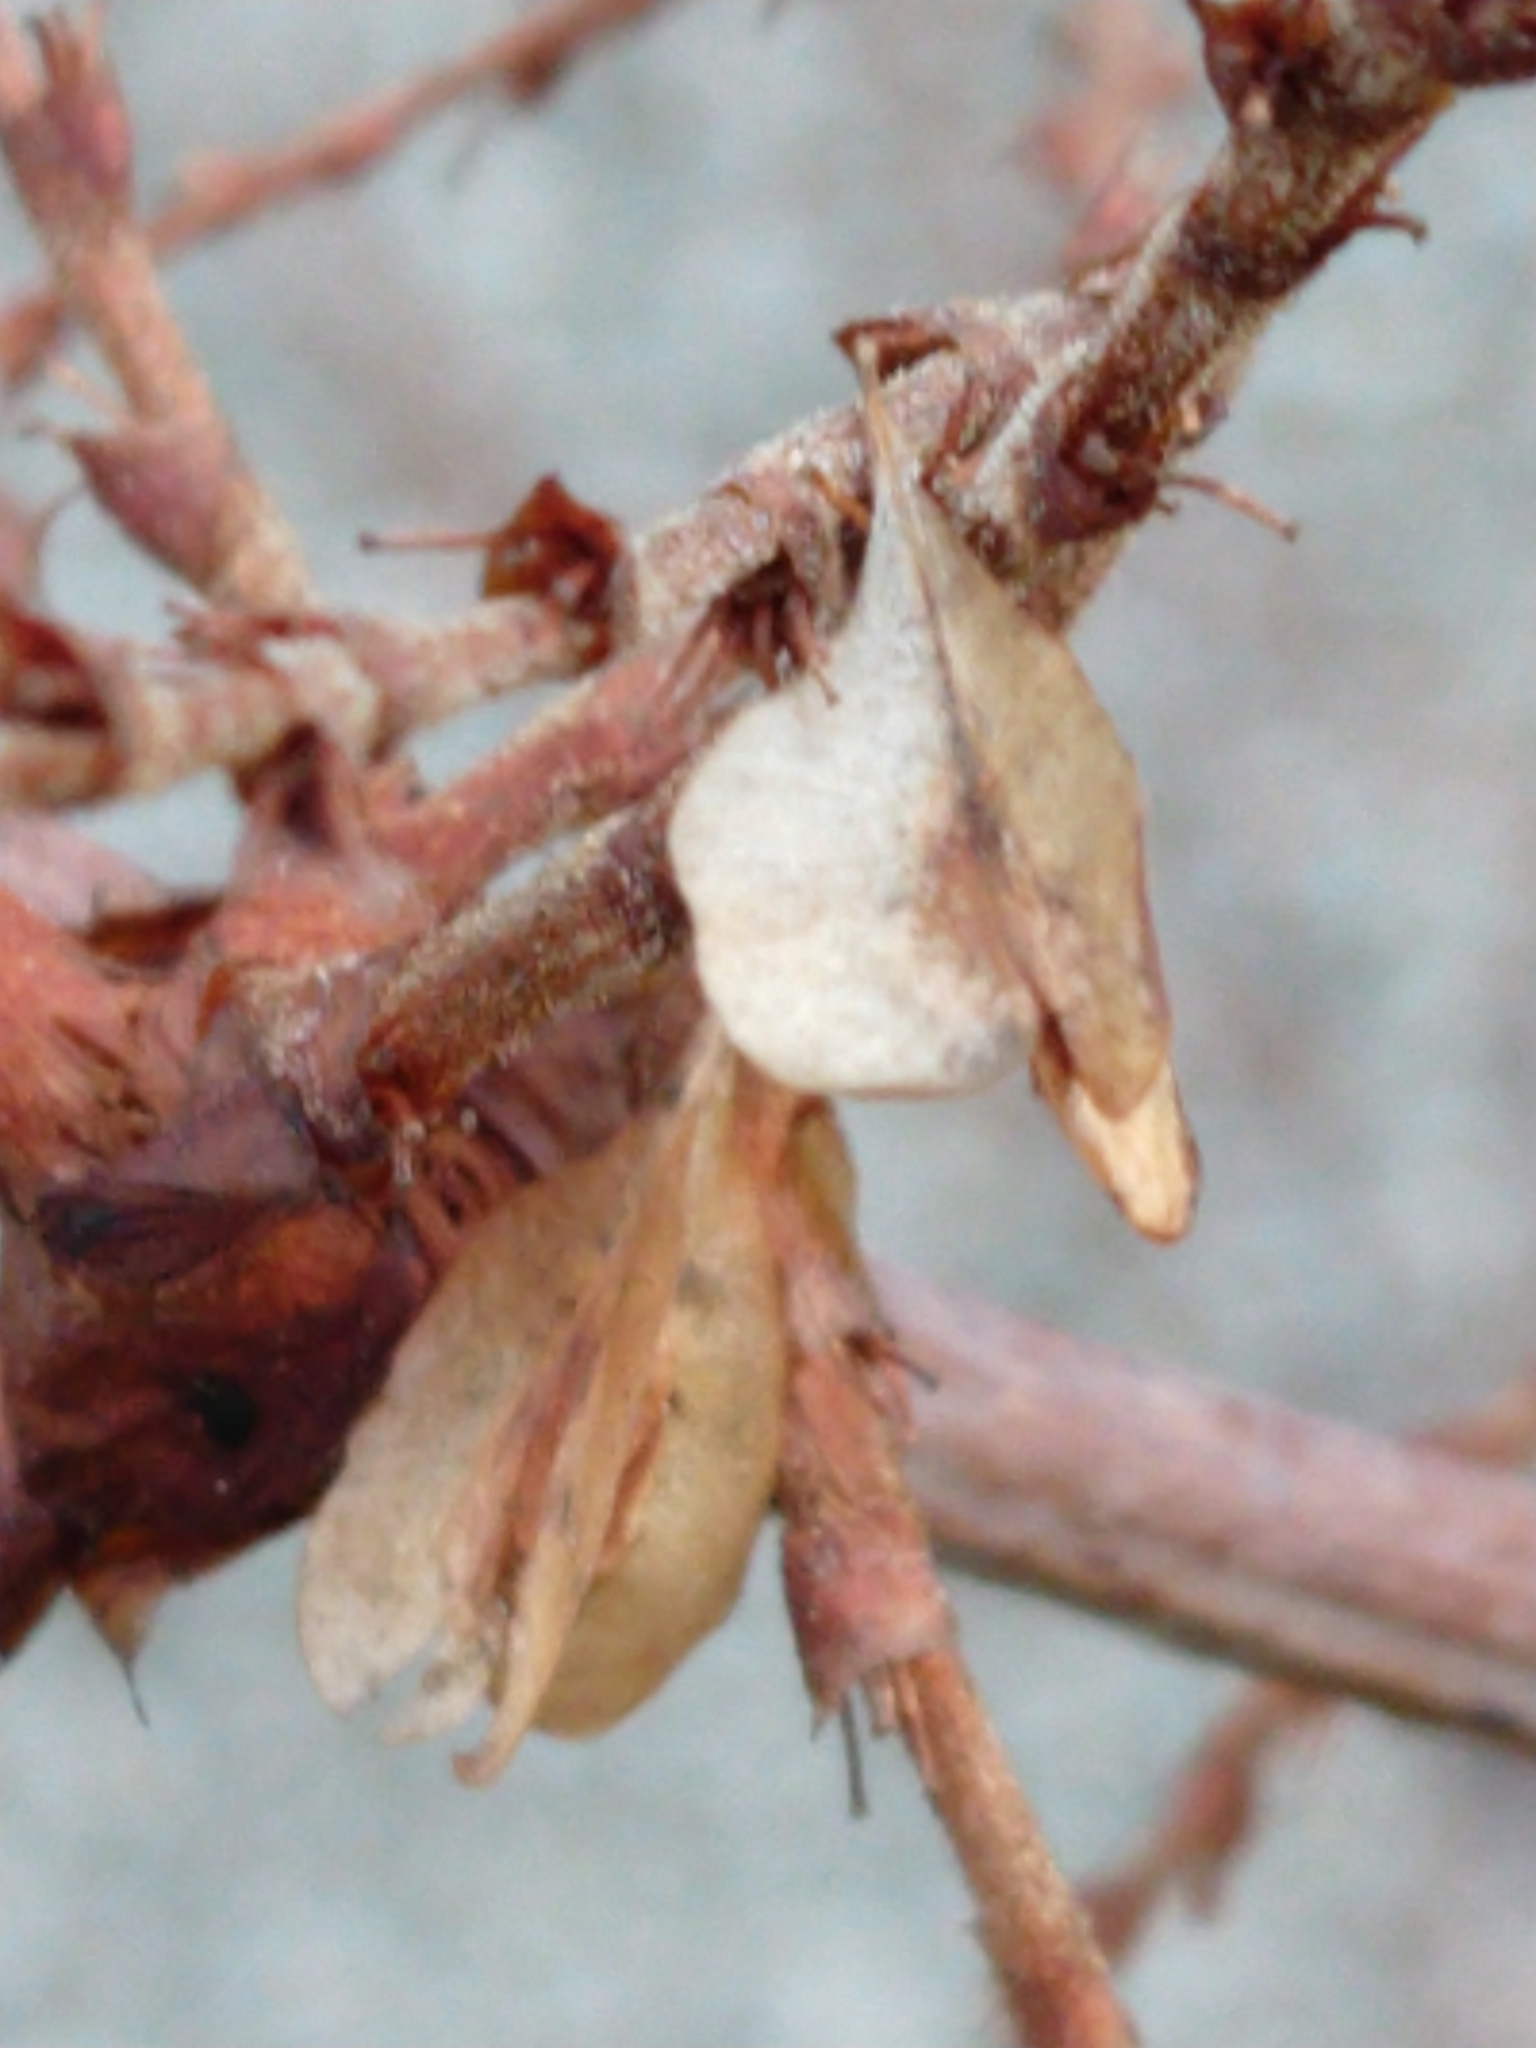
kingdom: Plantae
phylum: Tracheophyta
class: Magnoliopsida
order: Caryophyllales
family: Polygonaceae
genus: Reynoutria
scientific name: Reynoutria japonica
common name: Japanese knotweed
